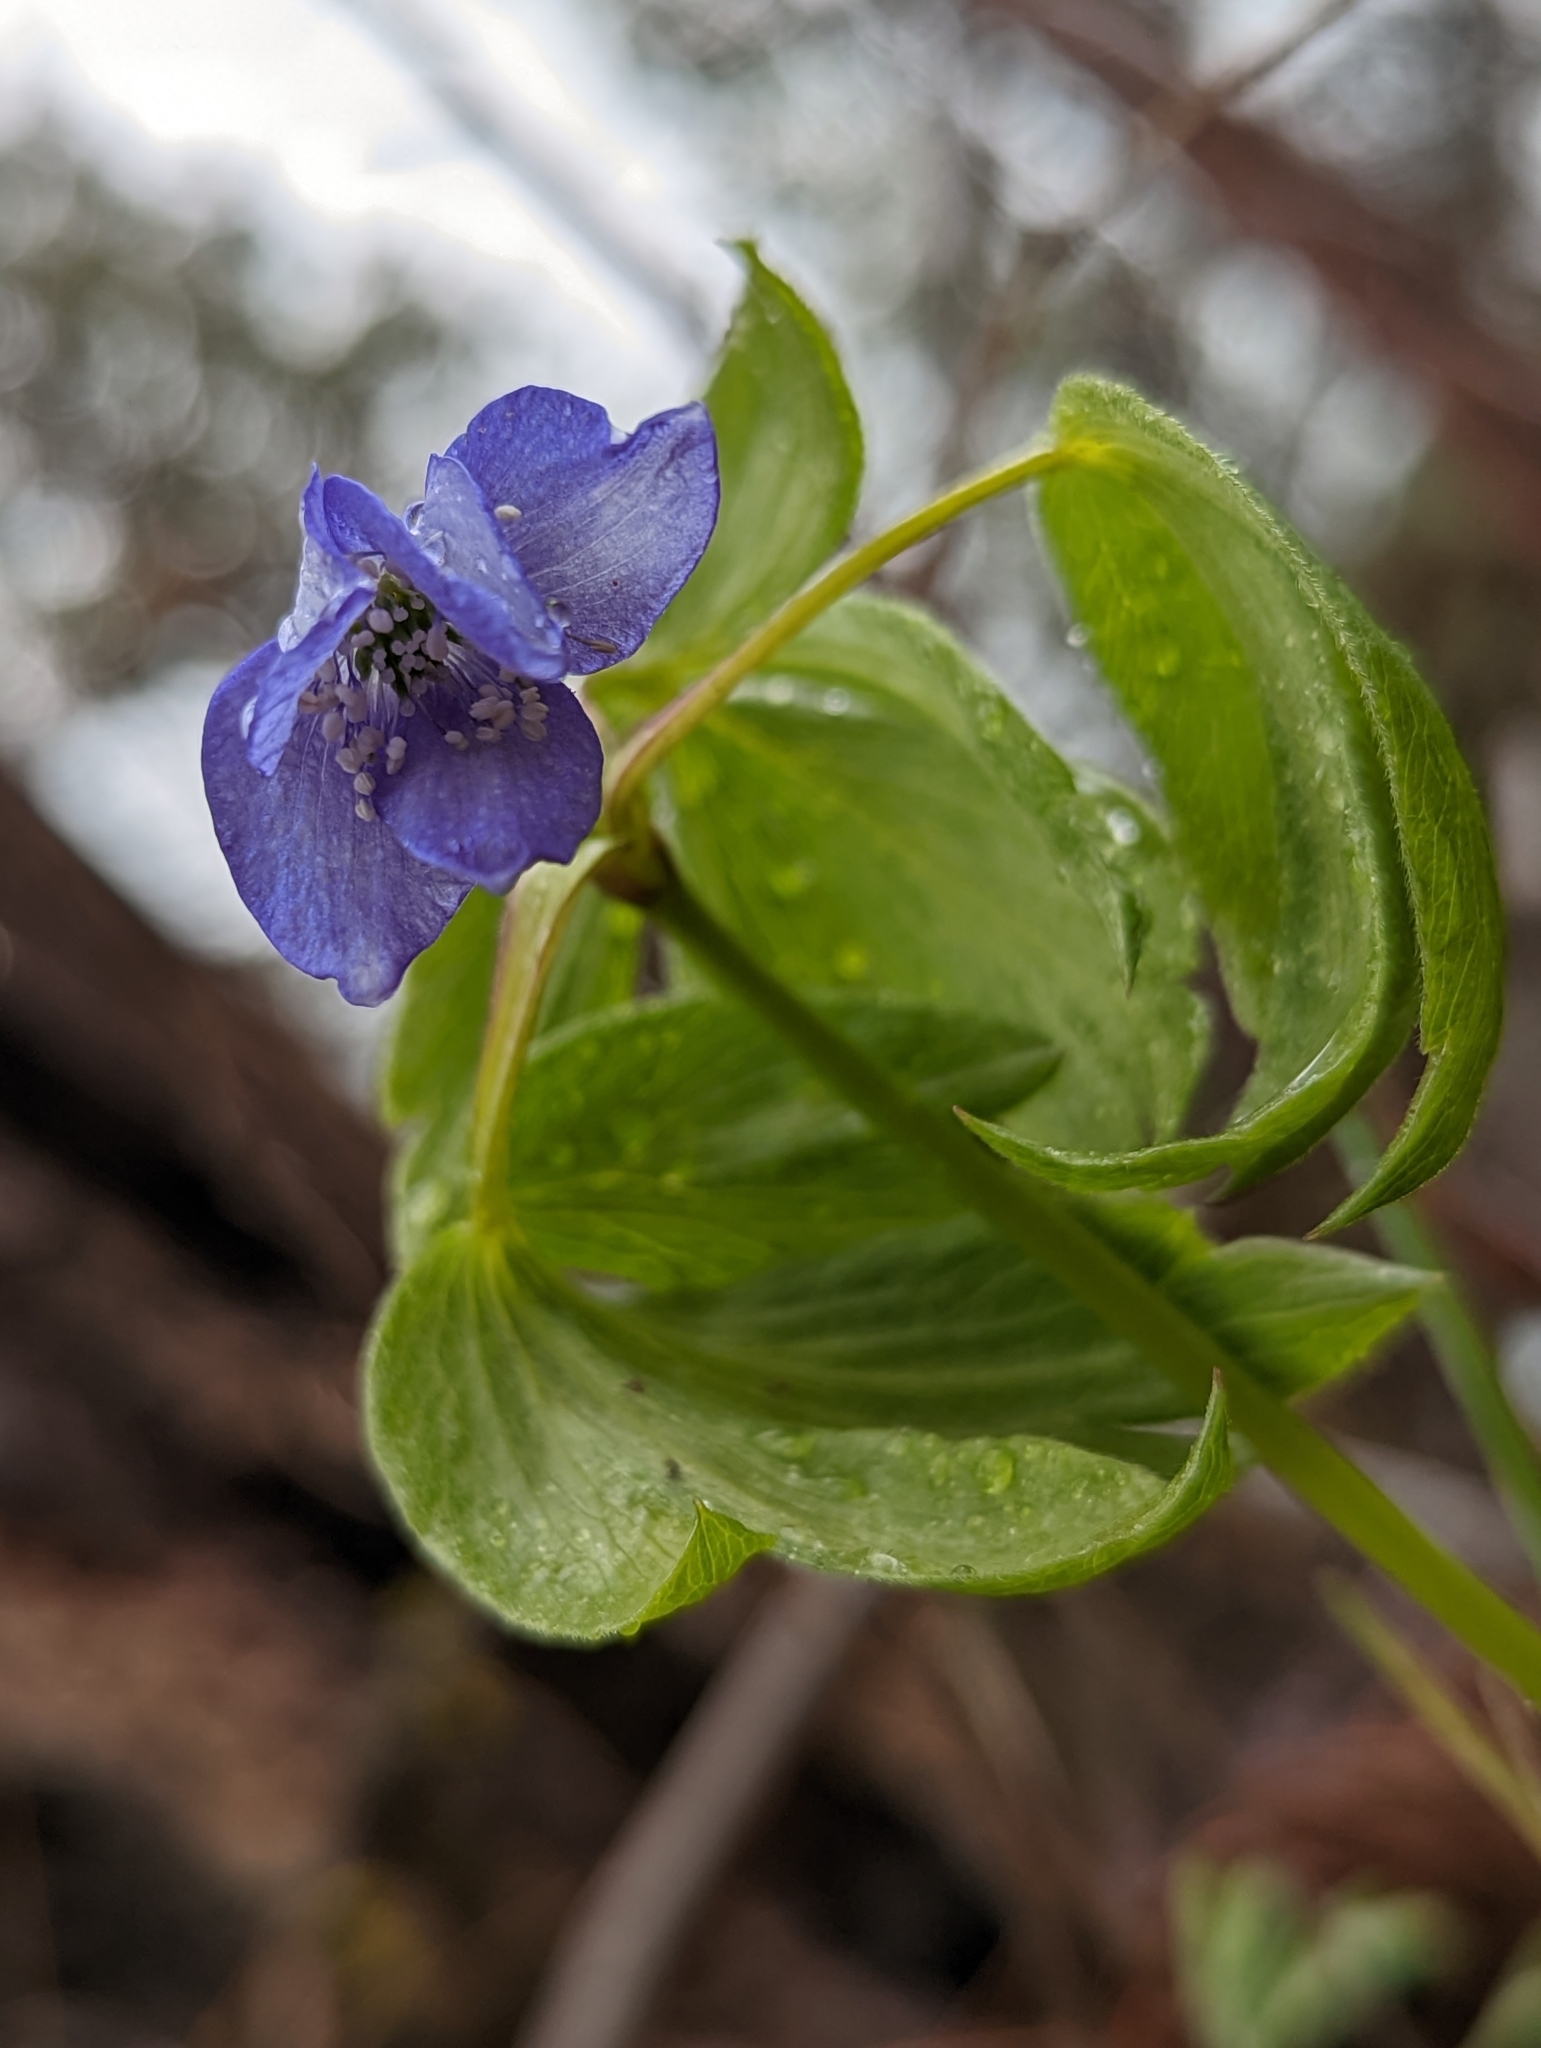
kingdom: Plantae
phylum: Tracheophyta
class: Magnoliopsida
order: Ranunculales
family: Ranunculaceae
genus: Anemone
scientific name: Anemone oregana
